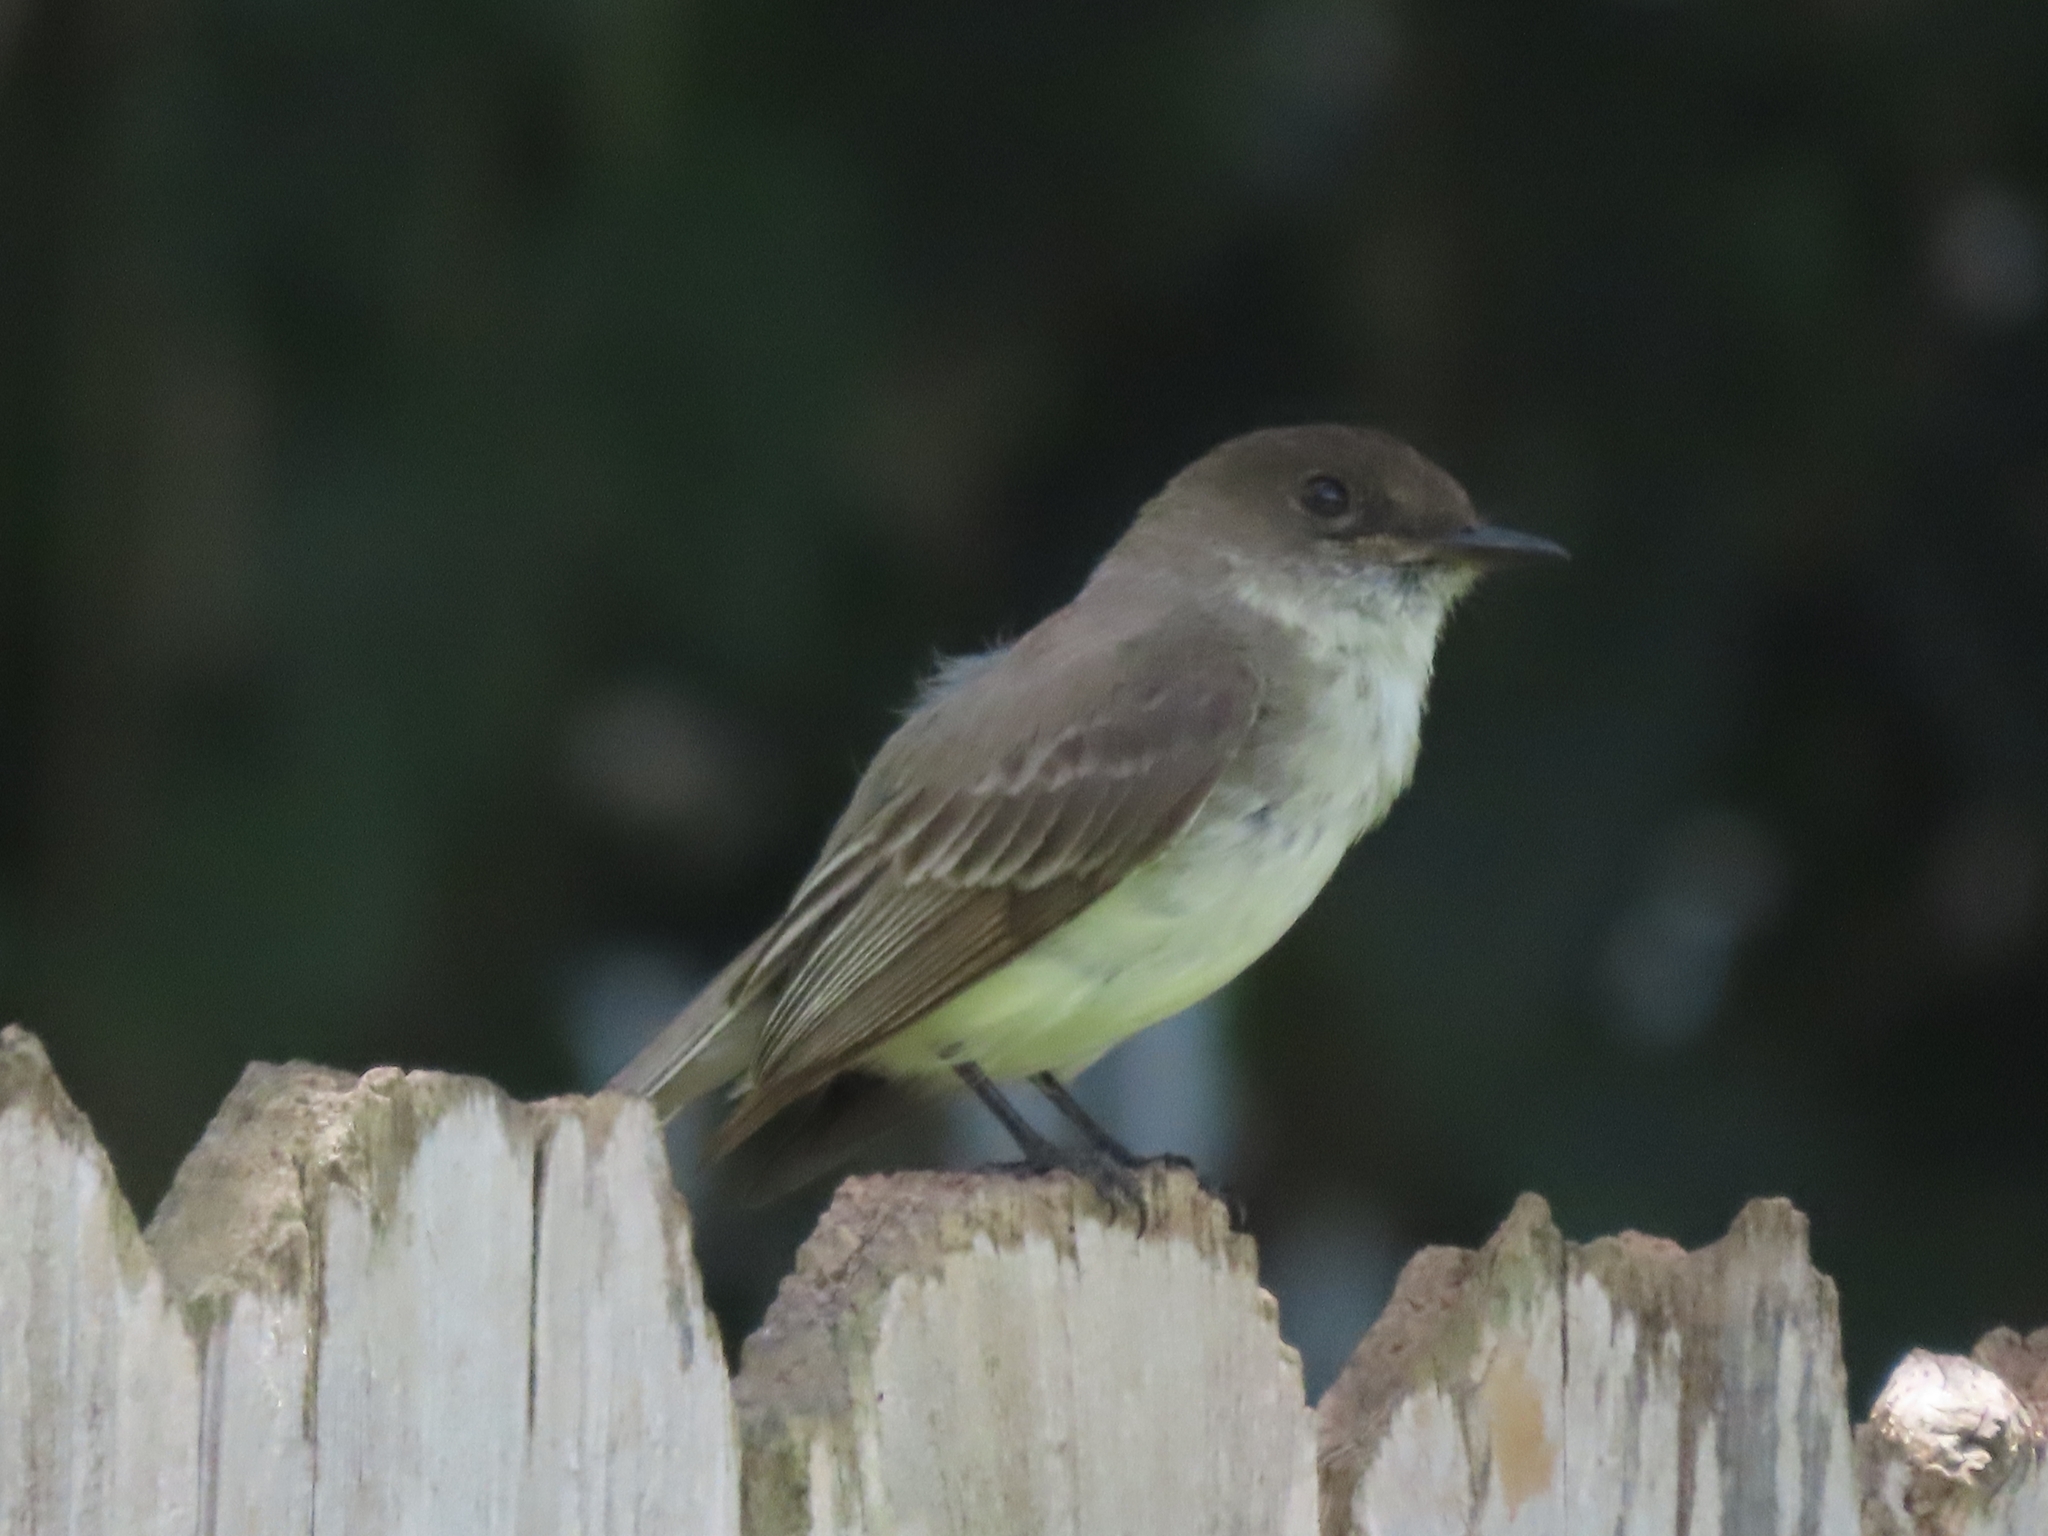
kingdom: Animalia
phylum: Chordata
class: Aves
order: Passeriformes
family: Tyrannidae
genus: Sayornis
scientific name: Sayornis phoebe
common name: Eastern phoebe
